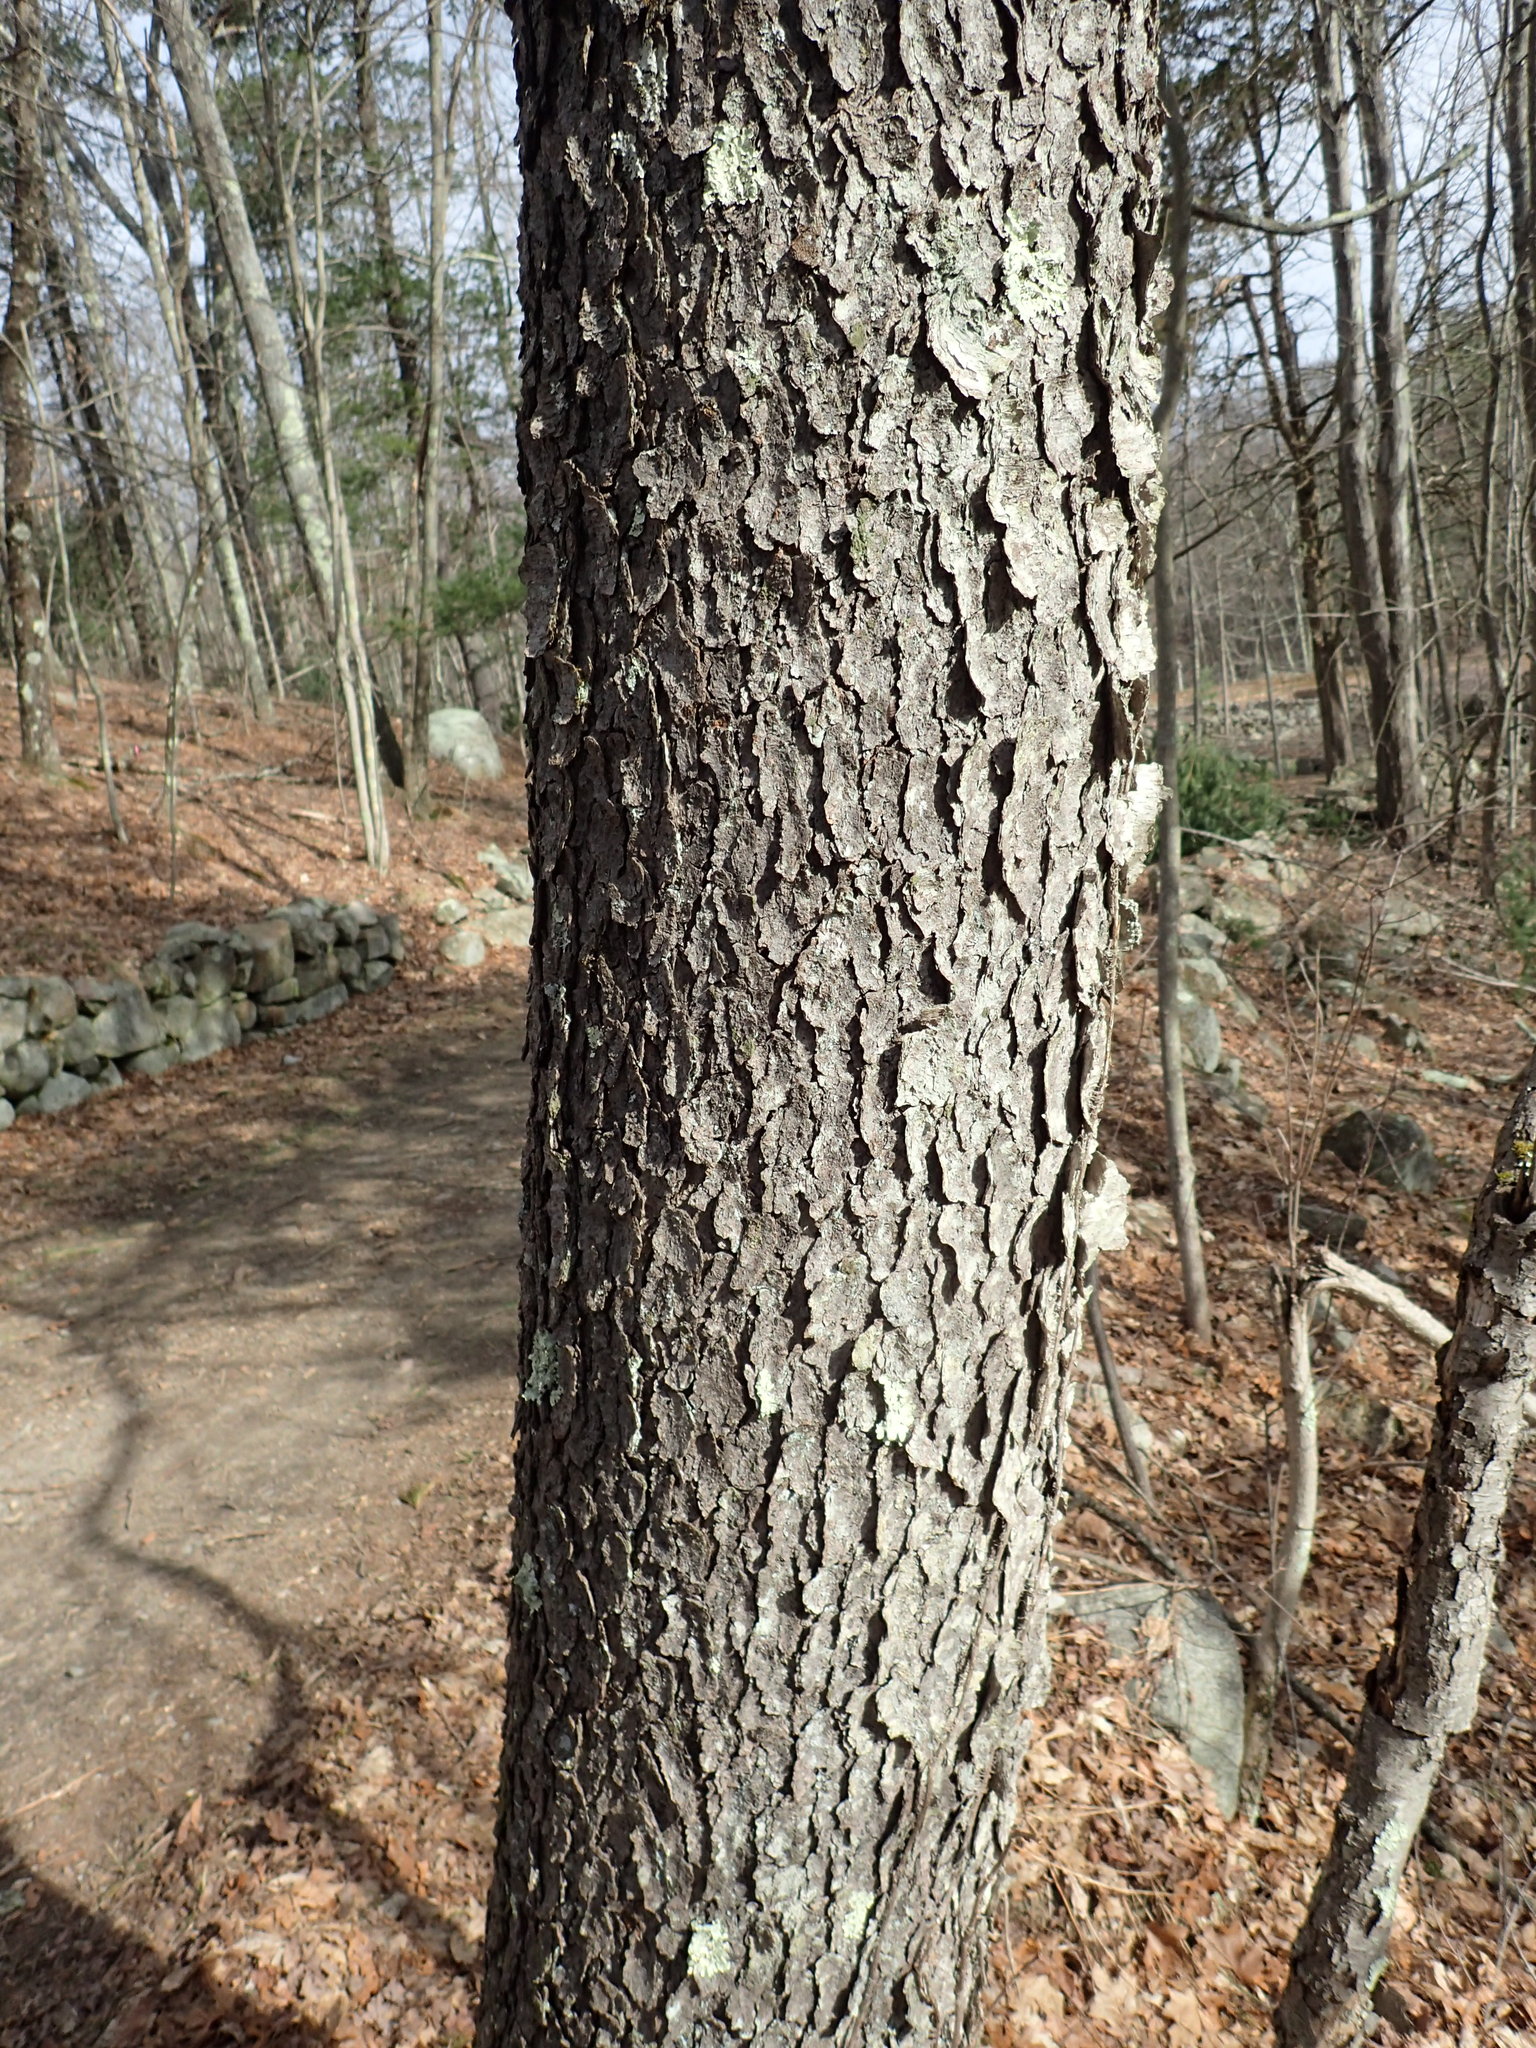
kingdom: Plantae
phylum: Tracheophyta
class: Magnoliopsida
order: Rosales
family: Rosaceae
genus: Prunus
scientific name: Prunus serotina
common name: Black cherry
